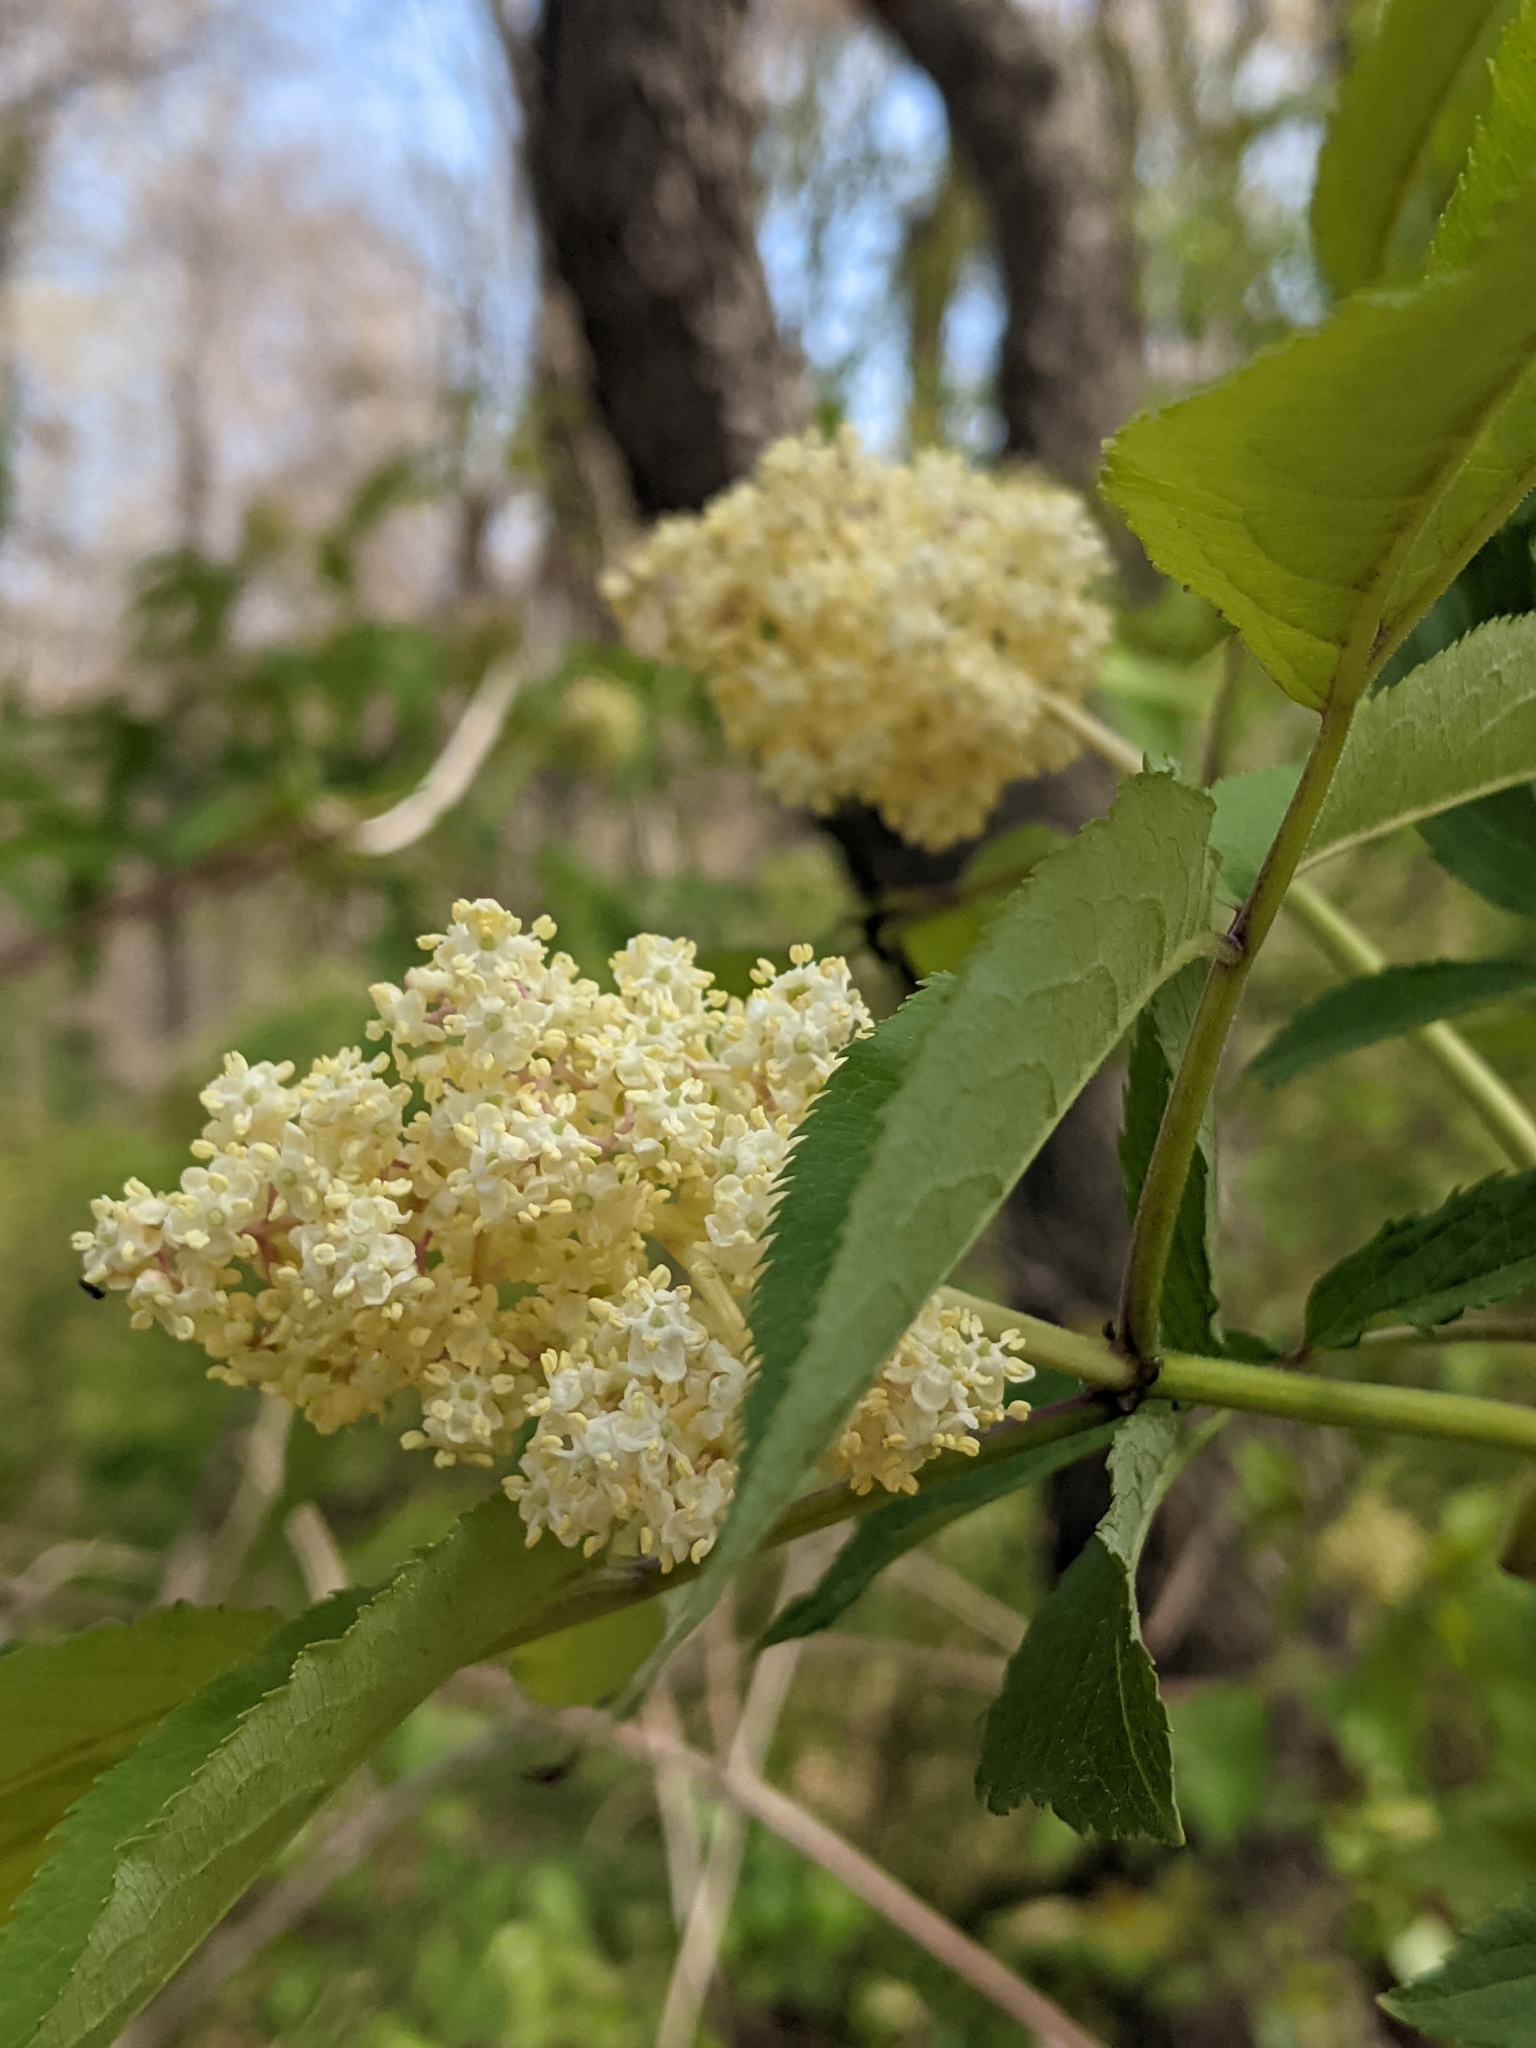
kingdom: Plantae
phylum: Tracheophyta
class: Magnoliopsida
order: Dipsacales
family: Viburnaceae
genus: Sambucus
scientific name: Sambucus racemosa
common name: Red-berried elder
